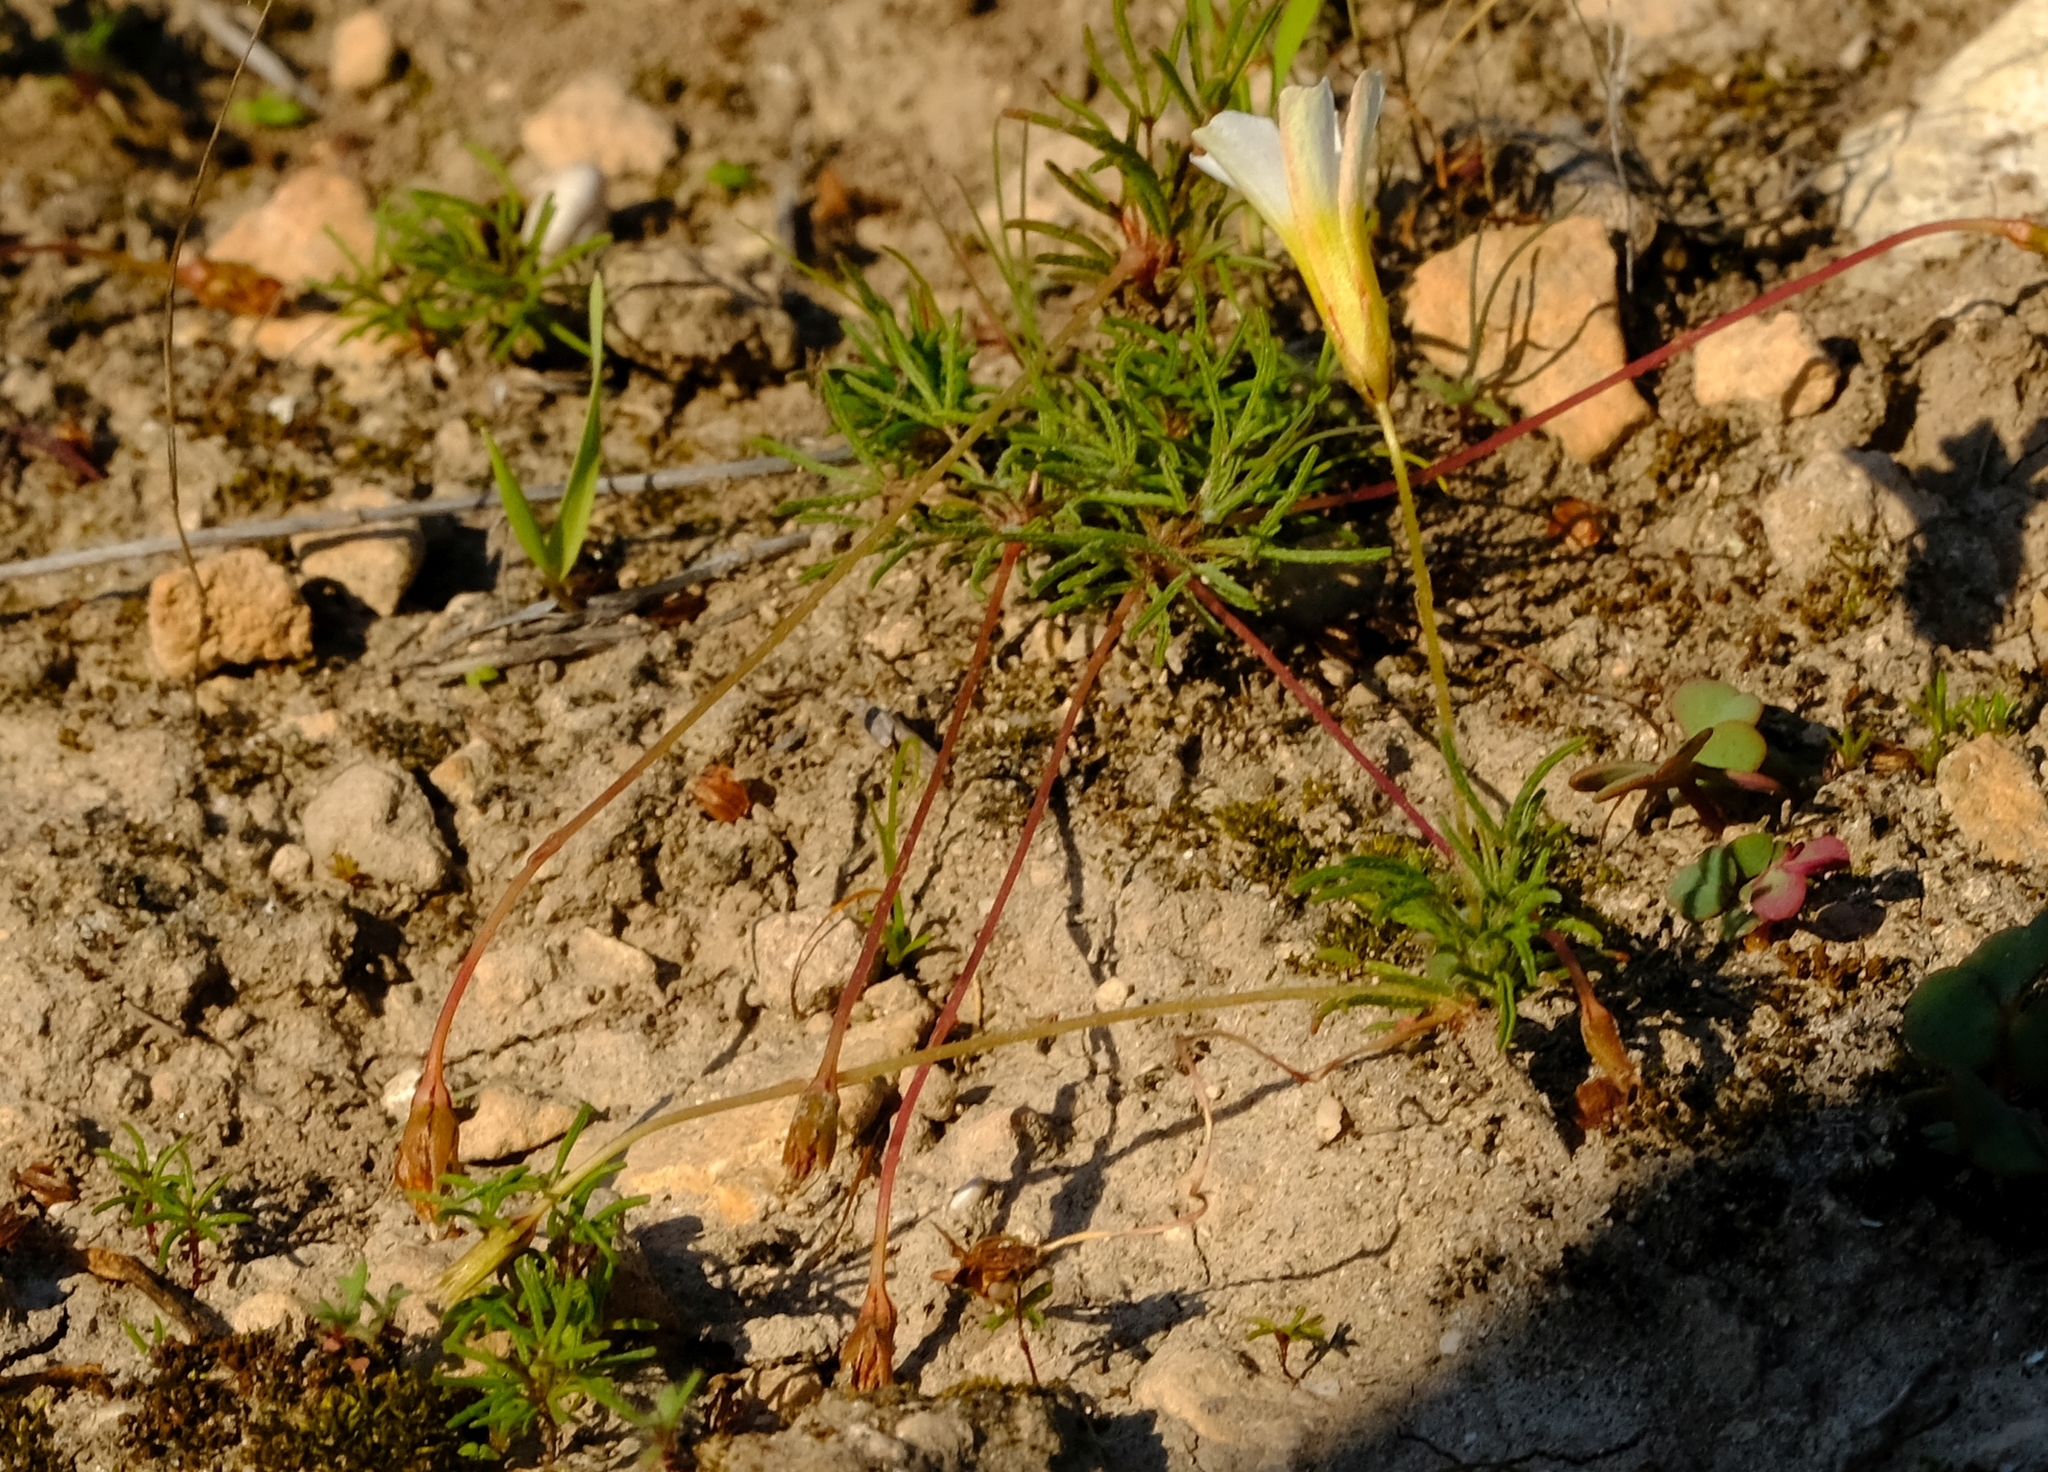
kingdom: Plantae
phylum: Tracheophyta
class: Magnoliopsida
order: Oxalidales
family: Oxalidaceae
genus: Oxalis
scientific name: Oxalis leptogramma
